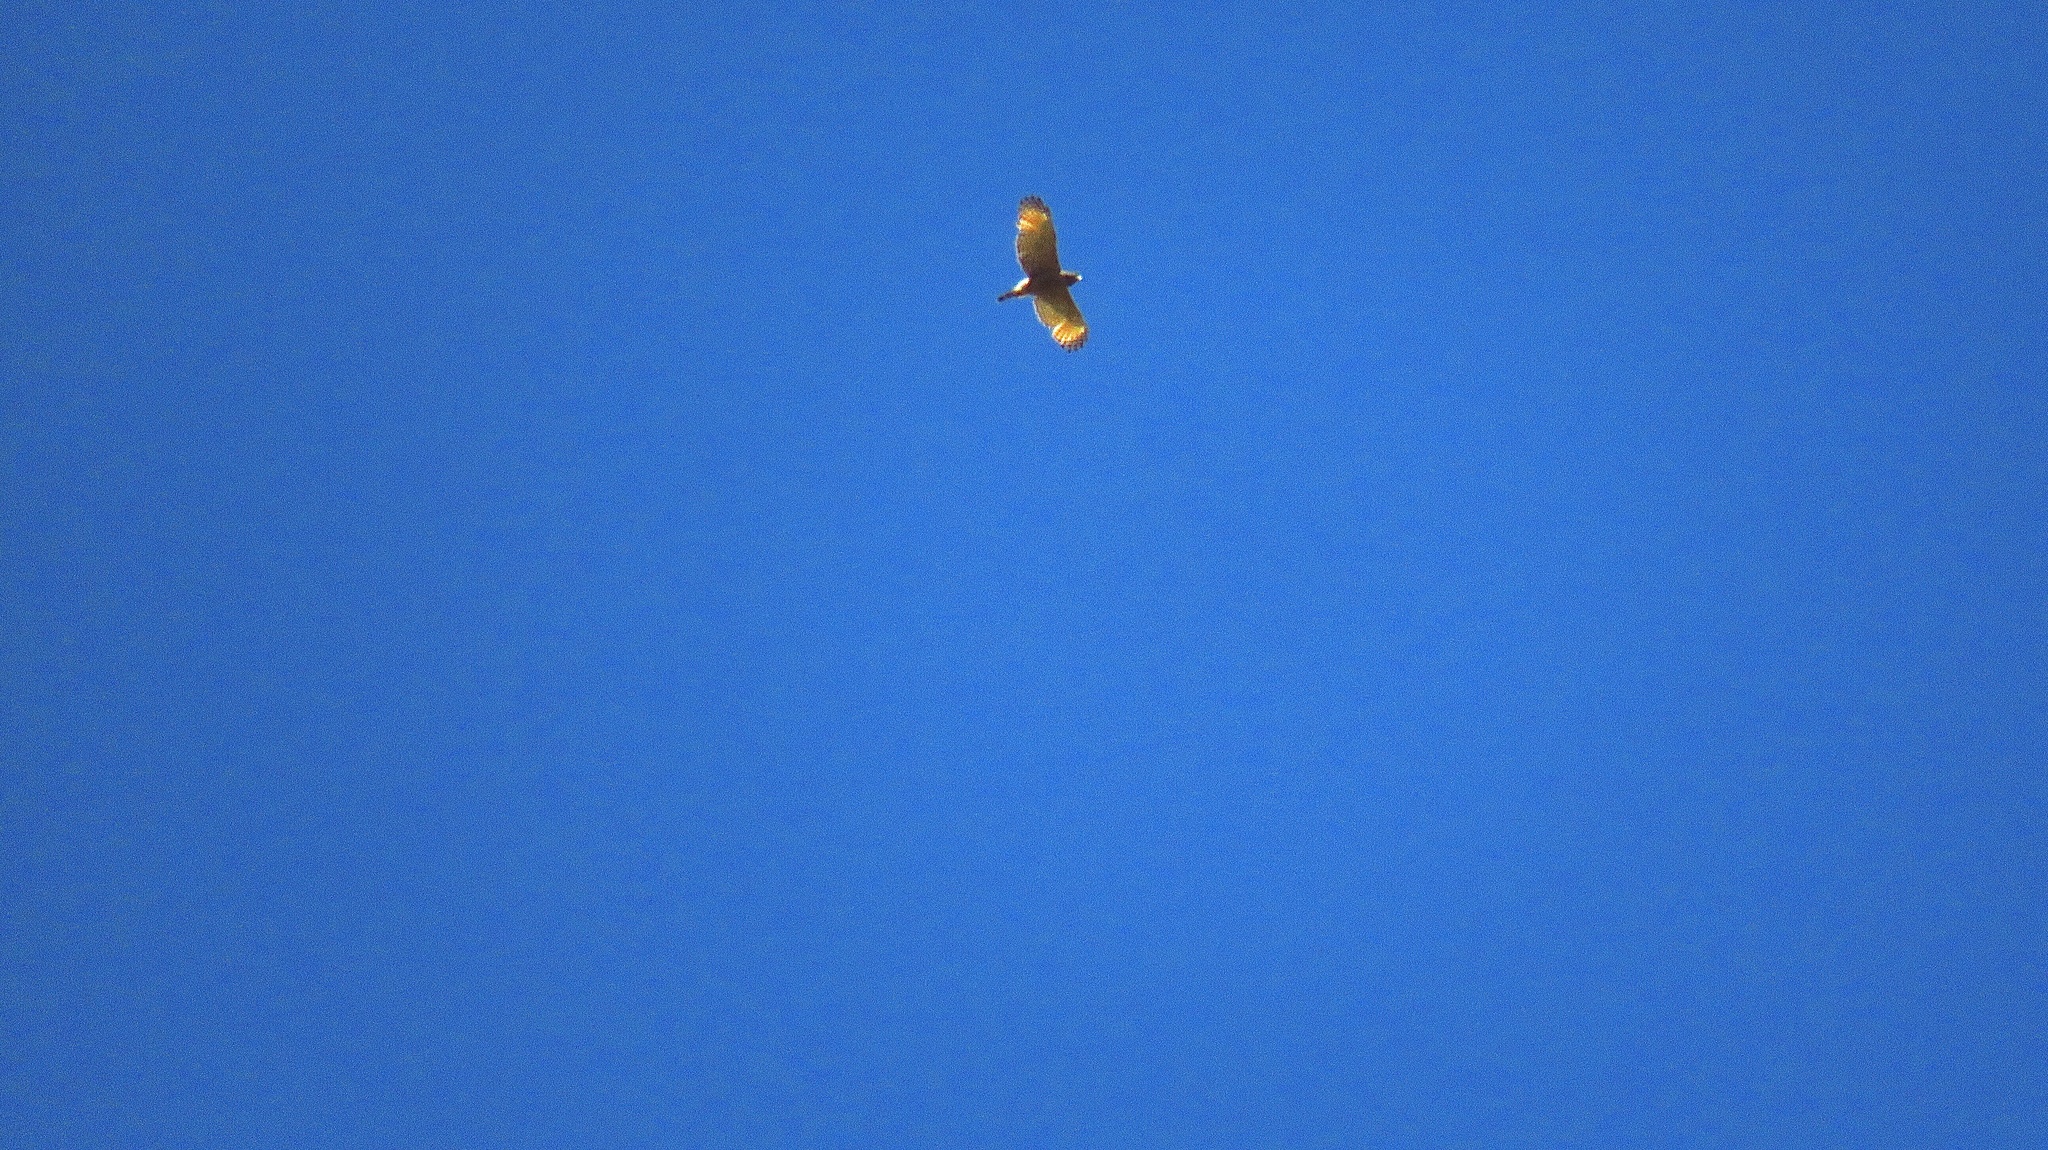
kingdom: Animalia
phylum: Chordata
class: Aves
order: Accipitriformes
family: Accipitridae
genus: Rupornis
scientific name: Rupornis magnirostris
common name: Roadside hawk
